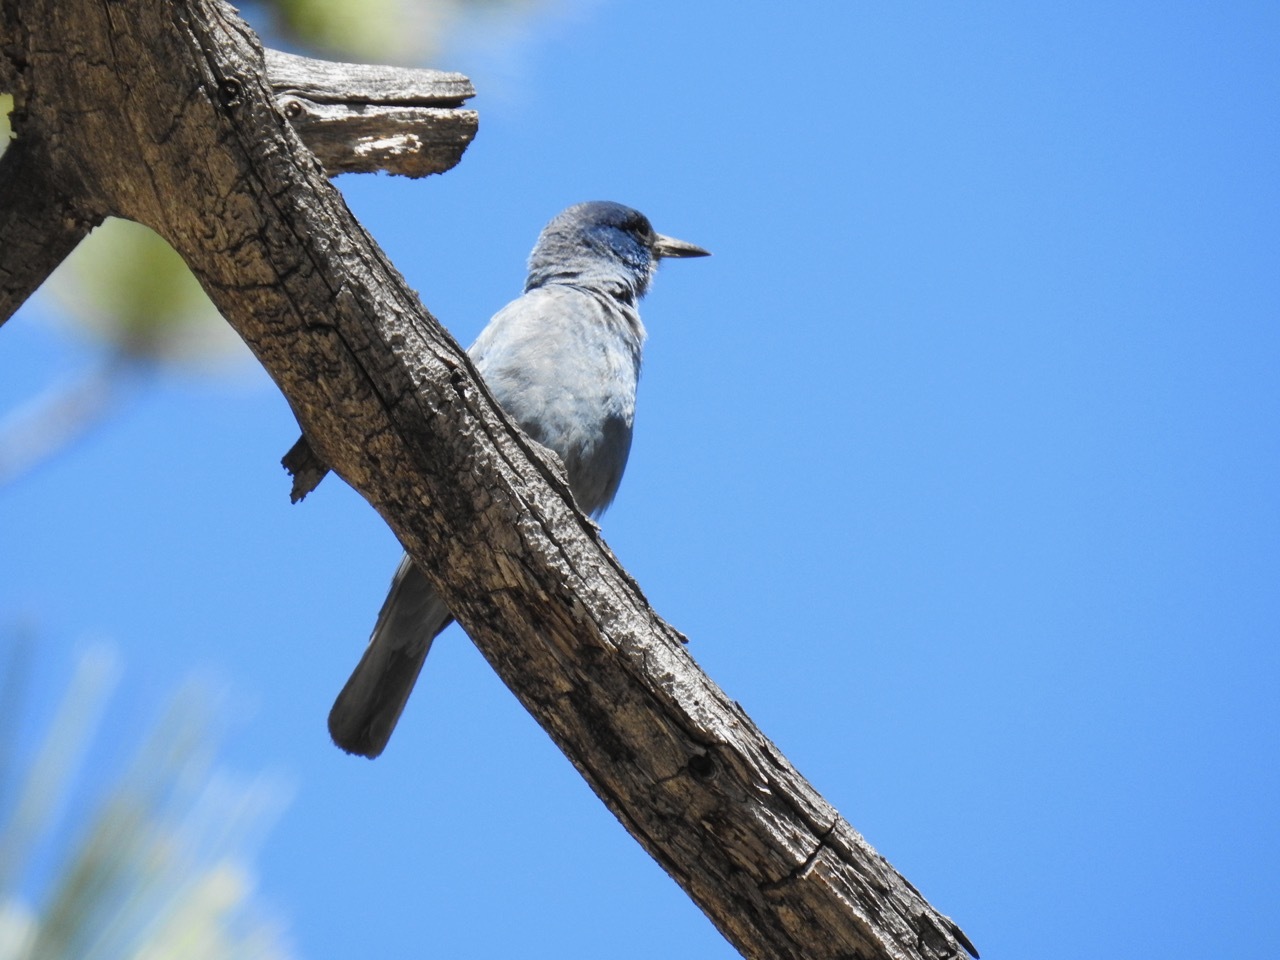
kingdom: Animalia
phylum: Chordata
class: Aves
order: Passeriformes
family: Corvidae
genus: Gymnorhinus
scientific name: Gymnorhinus cyanocephalus
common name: Pinyon jay
